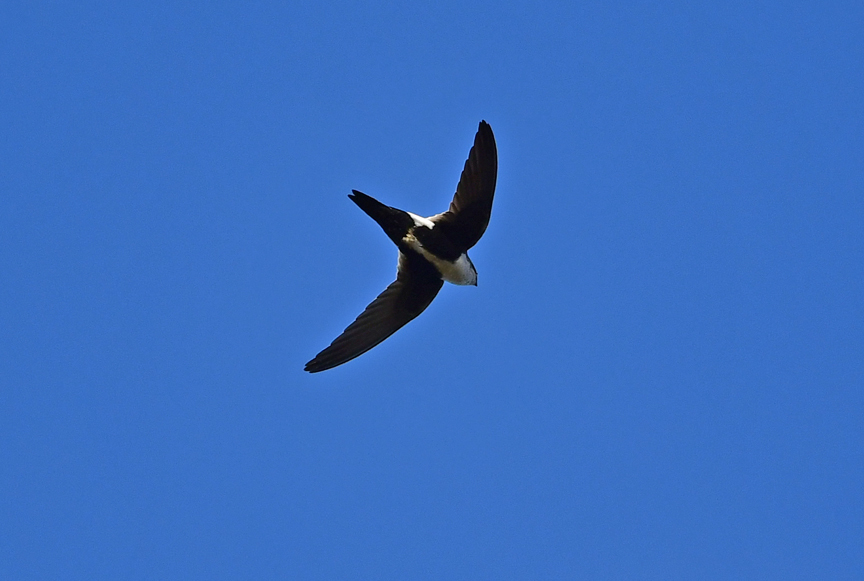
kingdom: Animalia
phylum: Chordata
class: Aves
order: Apodiformes
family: Apodidae
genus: Aeronautes
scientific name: Aeronautes saxatalis
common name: White-throated swift
